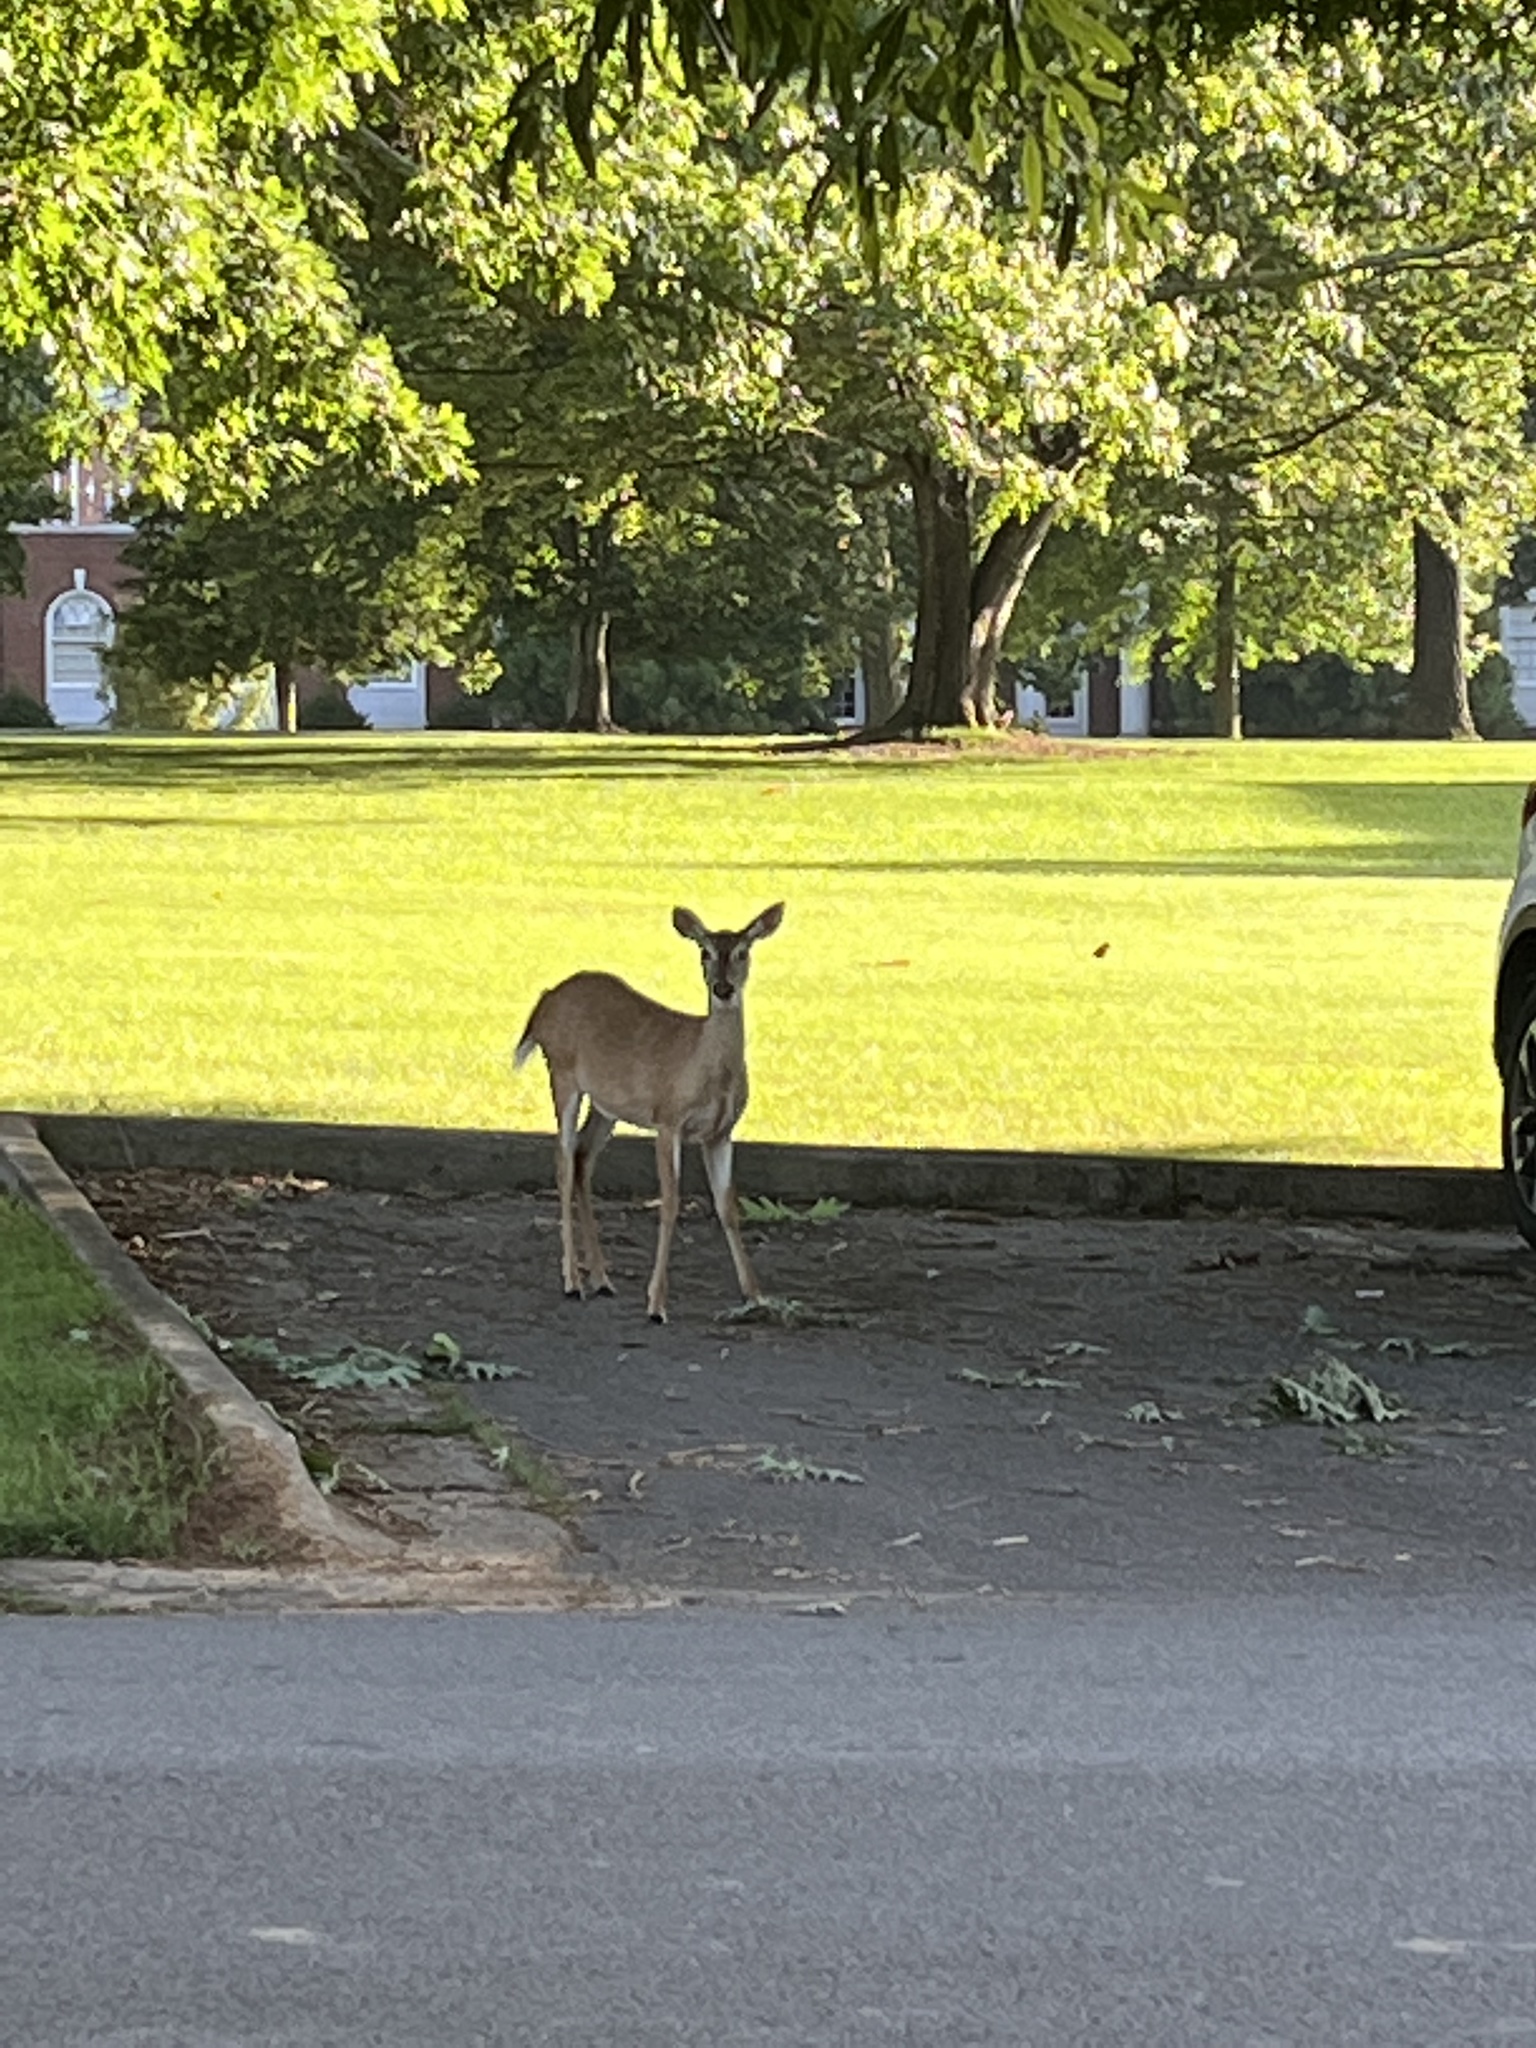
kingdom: Animalia
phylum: Chordata
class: Mammalia
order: Artiodactyla
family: Cervidae
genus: Odocoileus
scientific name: Odocoileus virginianus
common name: White-tailed deer
